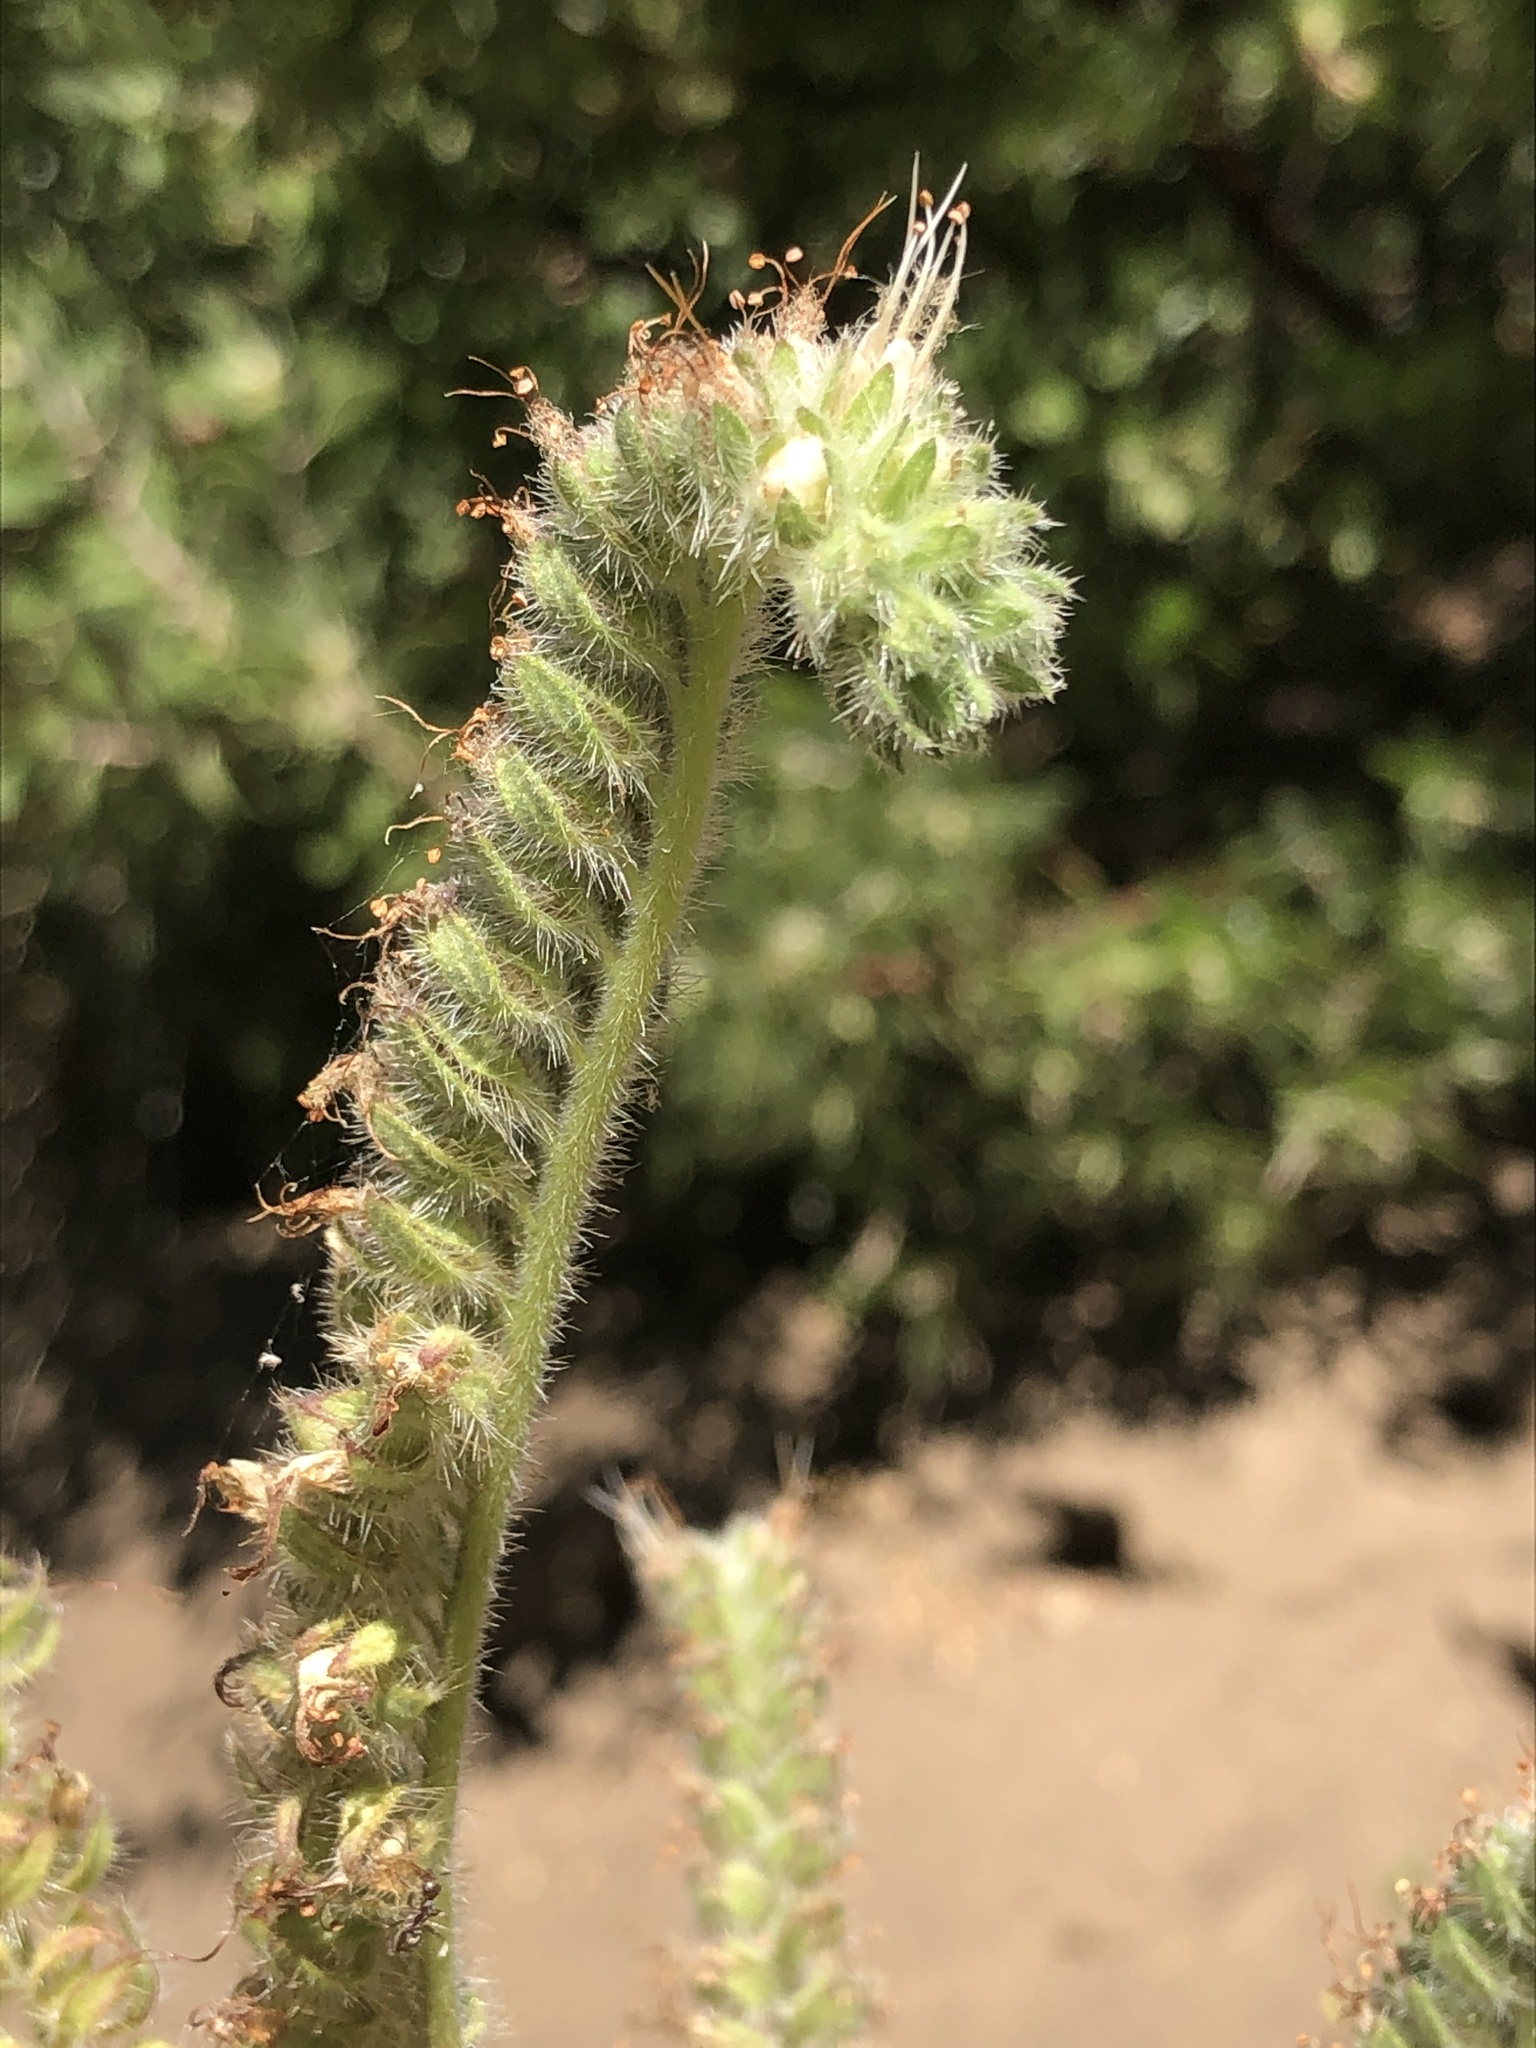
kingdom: Plantae
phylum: Tracheophyta
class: Magnoliopsida
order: Boraginales
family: Hydrophyllaceae
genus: Phacelia
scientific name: Phacelia imbricata
